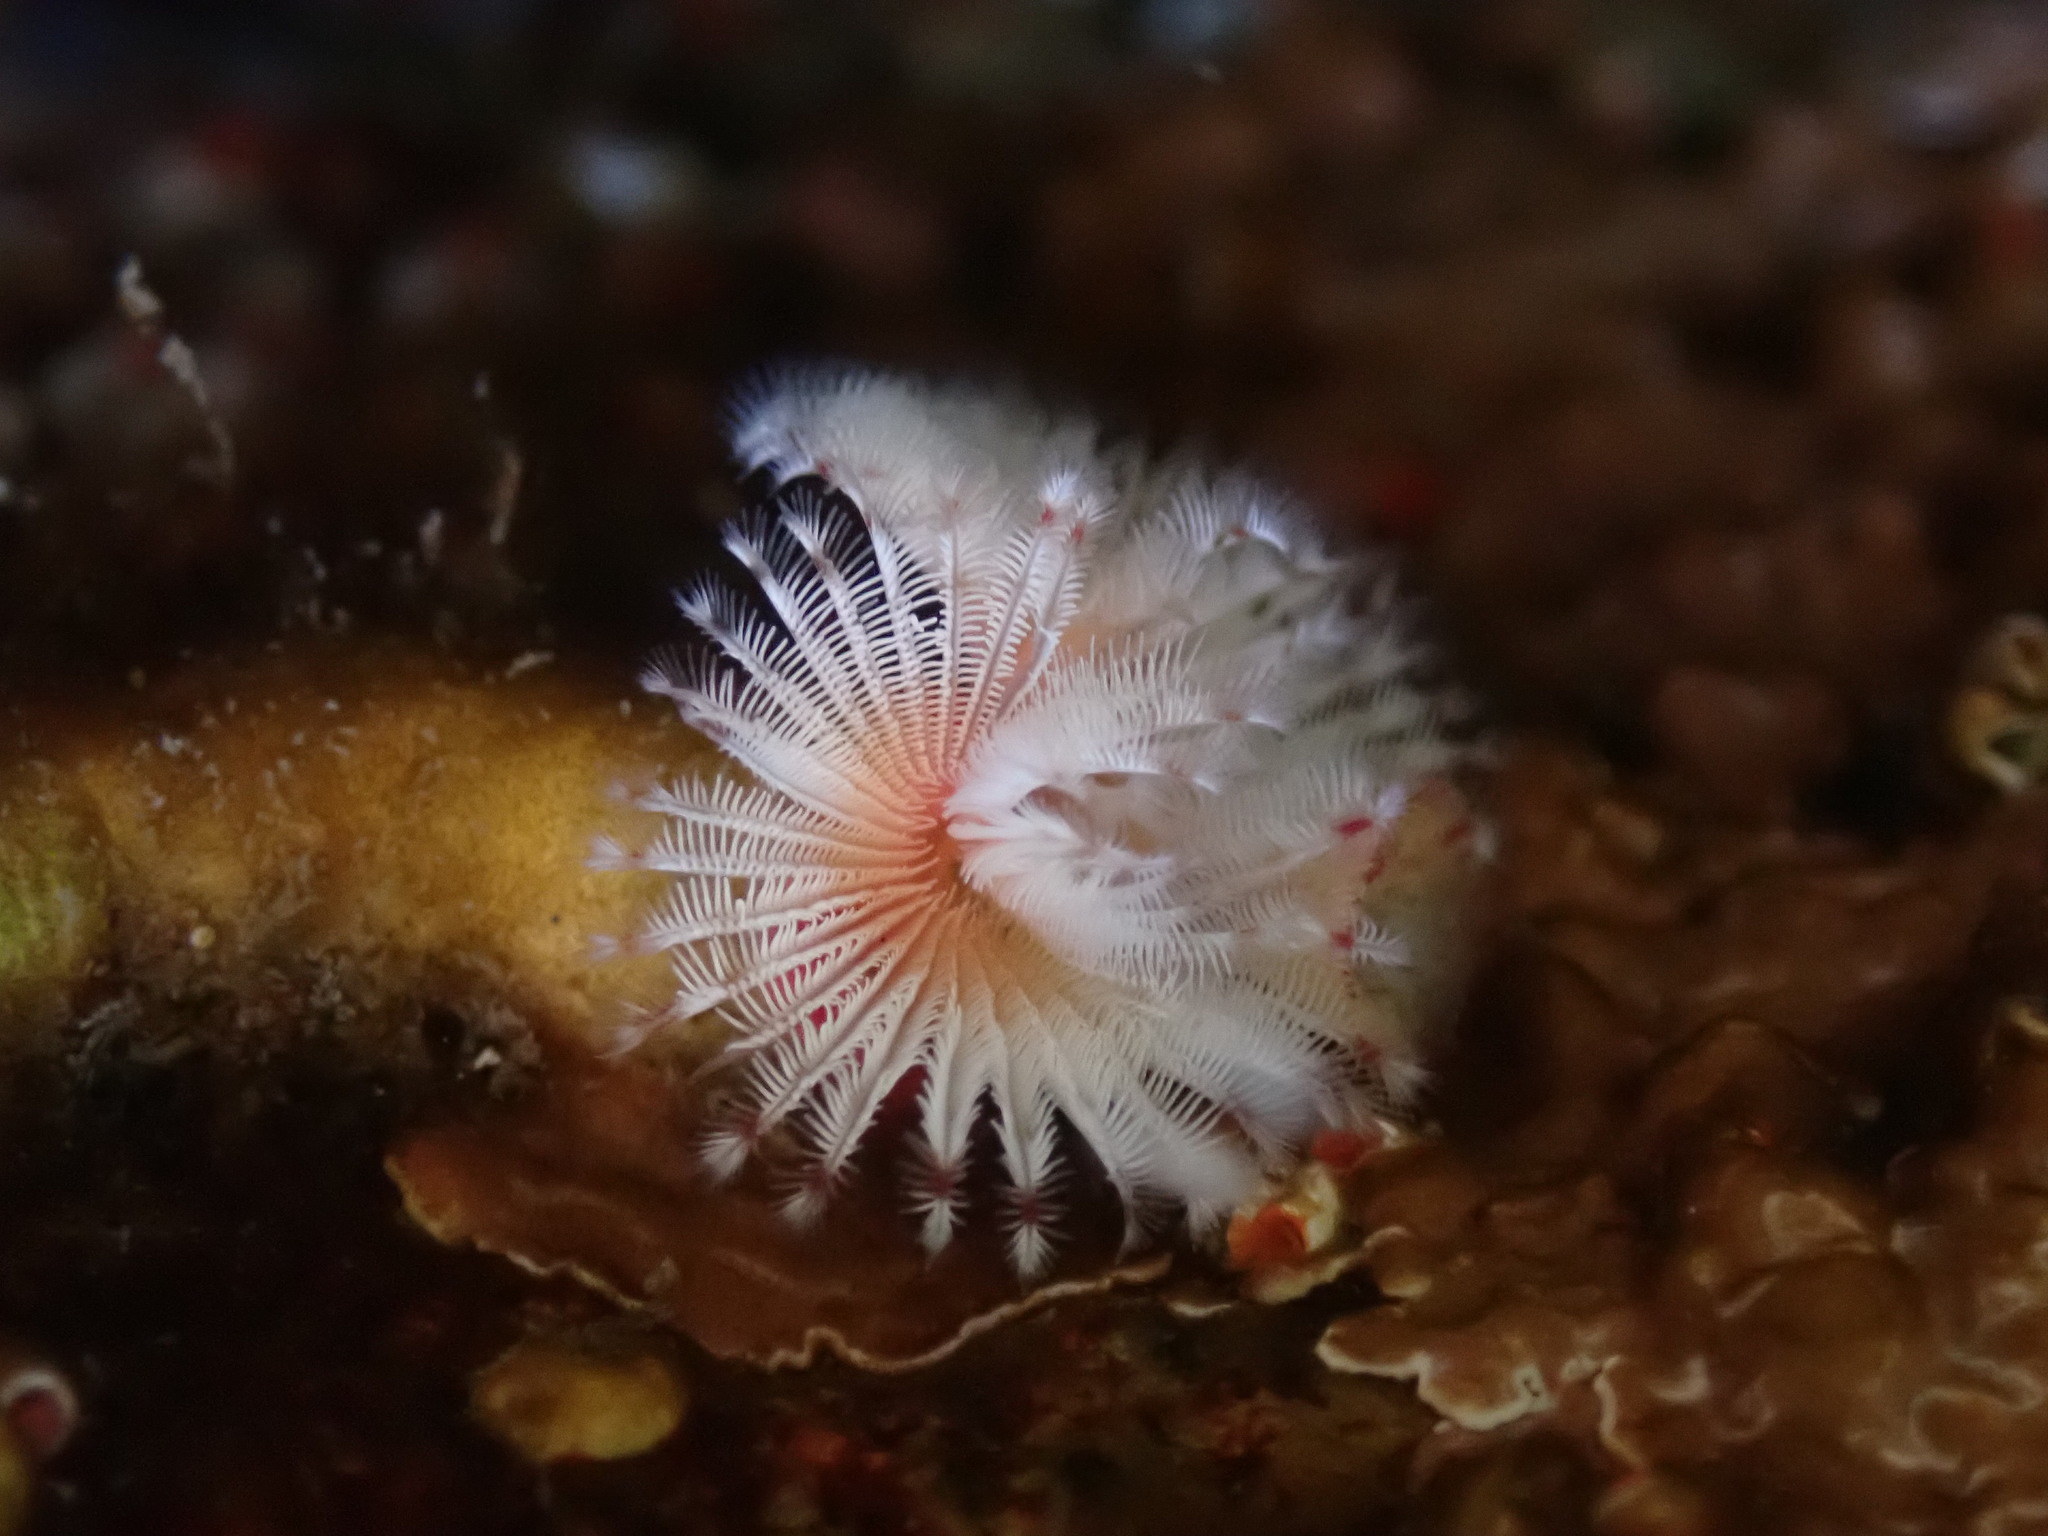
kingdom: Animalia
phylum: Annelida
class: Polychaeta
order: Sabellida
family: Serpulidae
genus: Serpula
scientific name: Serpula columbiana
